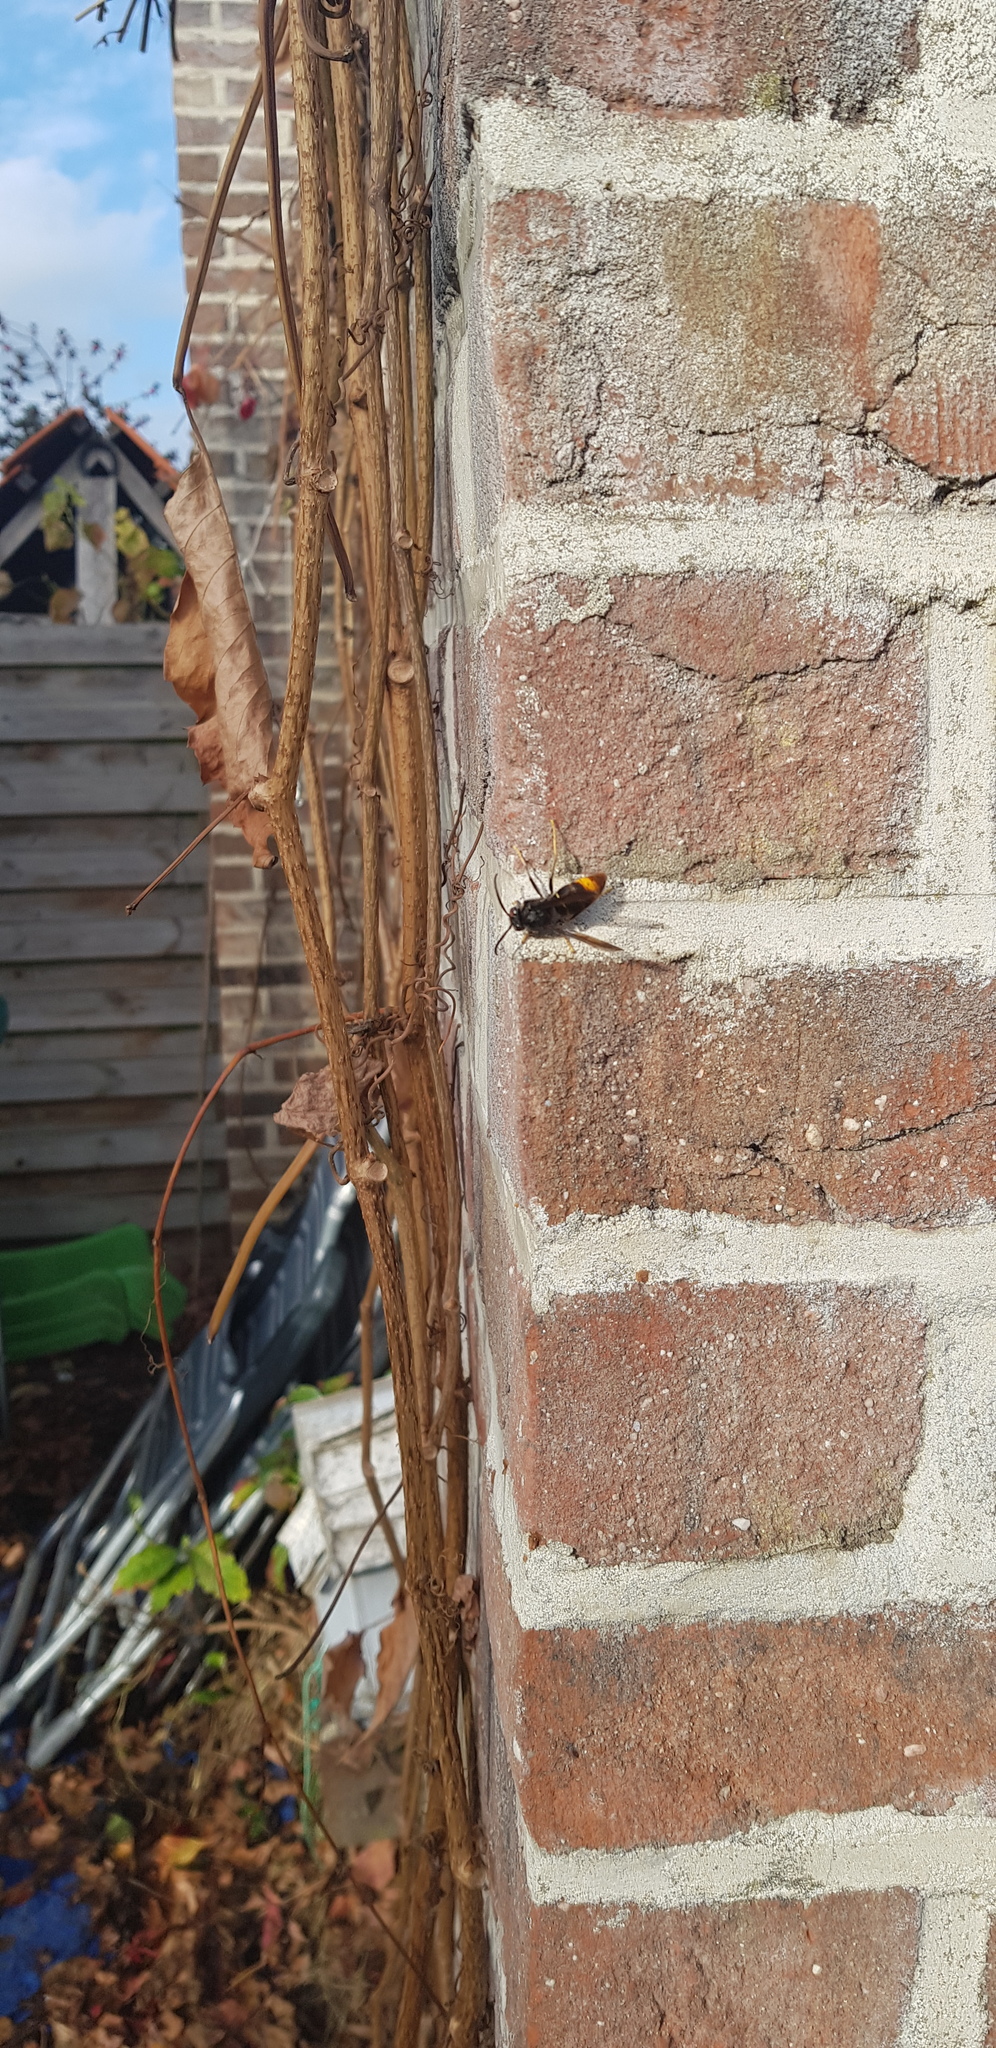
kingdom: Animalia
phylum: Arthropoda
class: Insecta
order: Hymenoptera
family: Vespidae
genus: Vespa
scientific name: Vespa velutina
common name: Asian hornet
